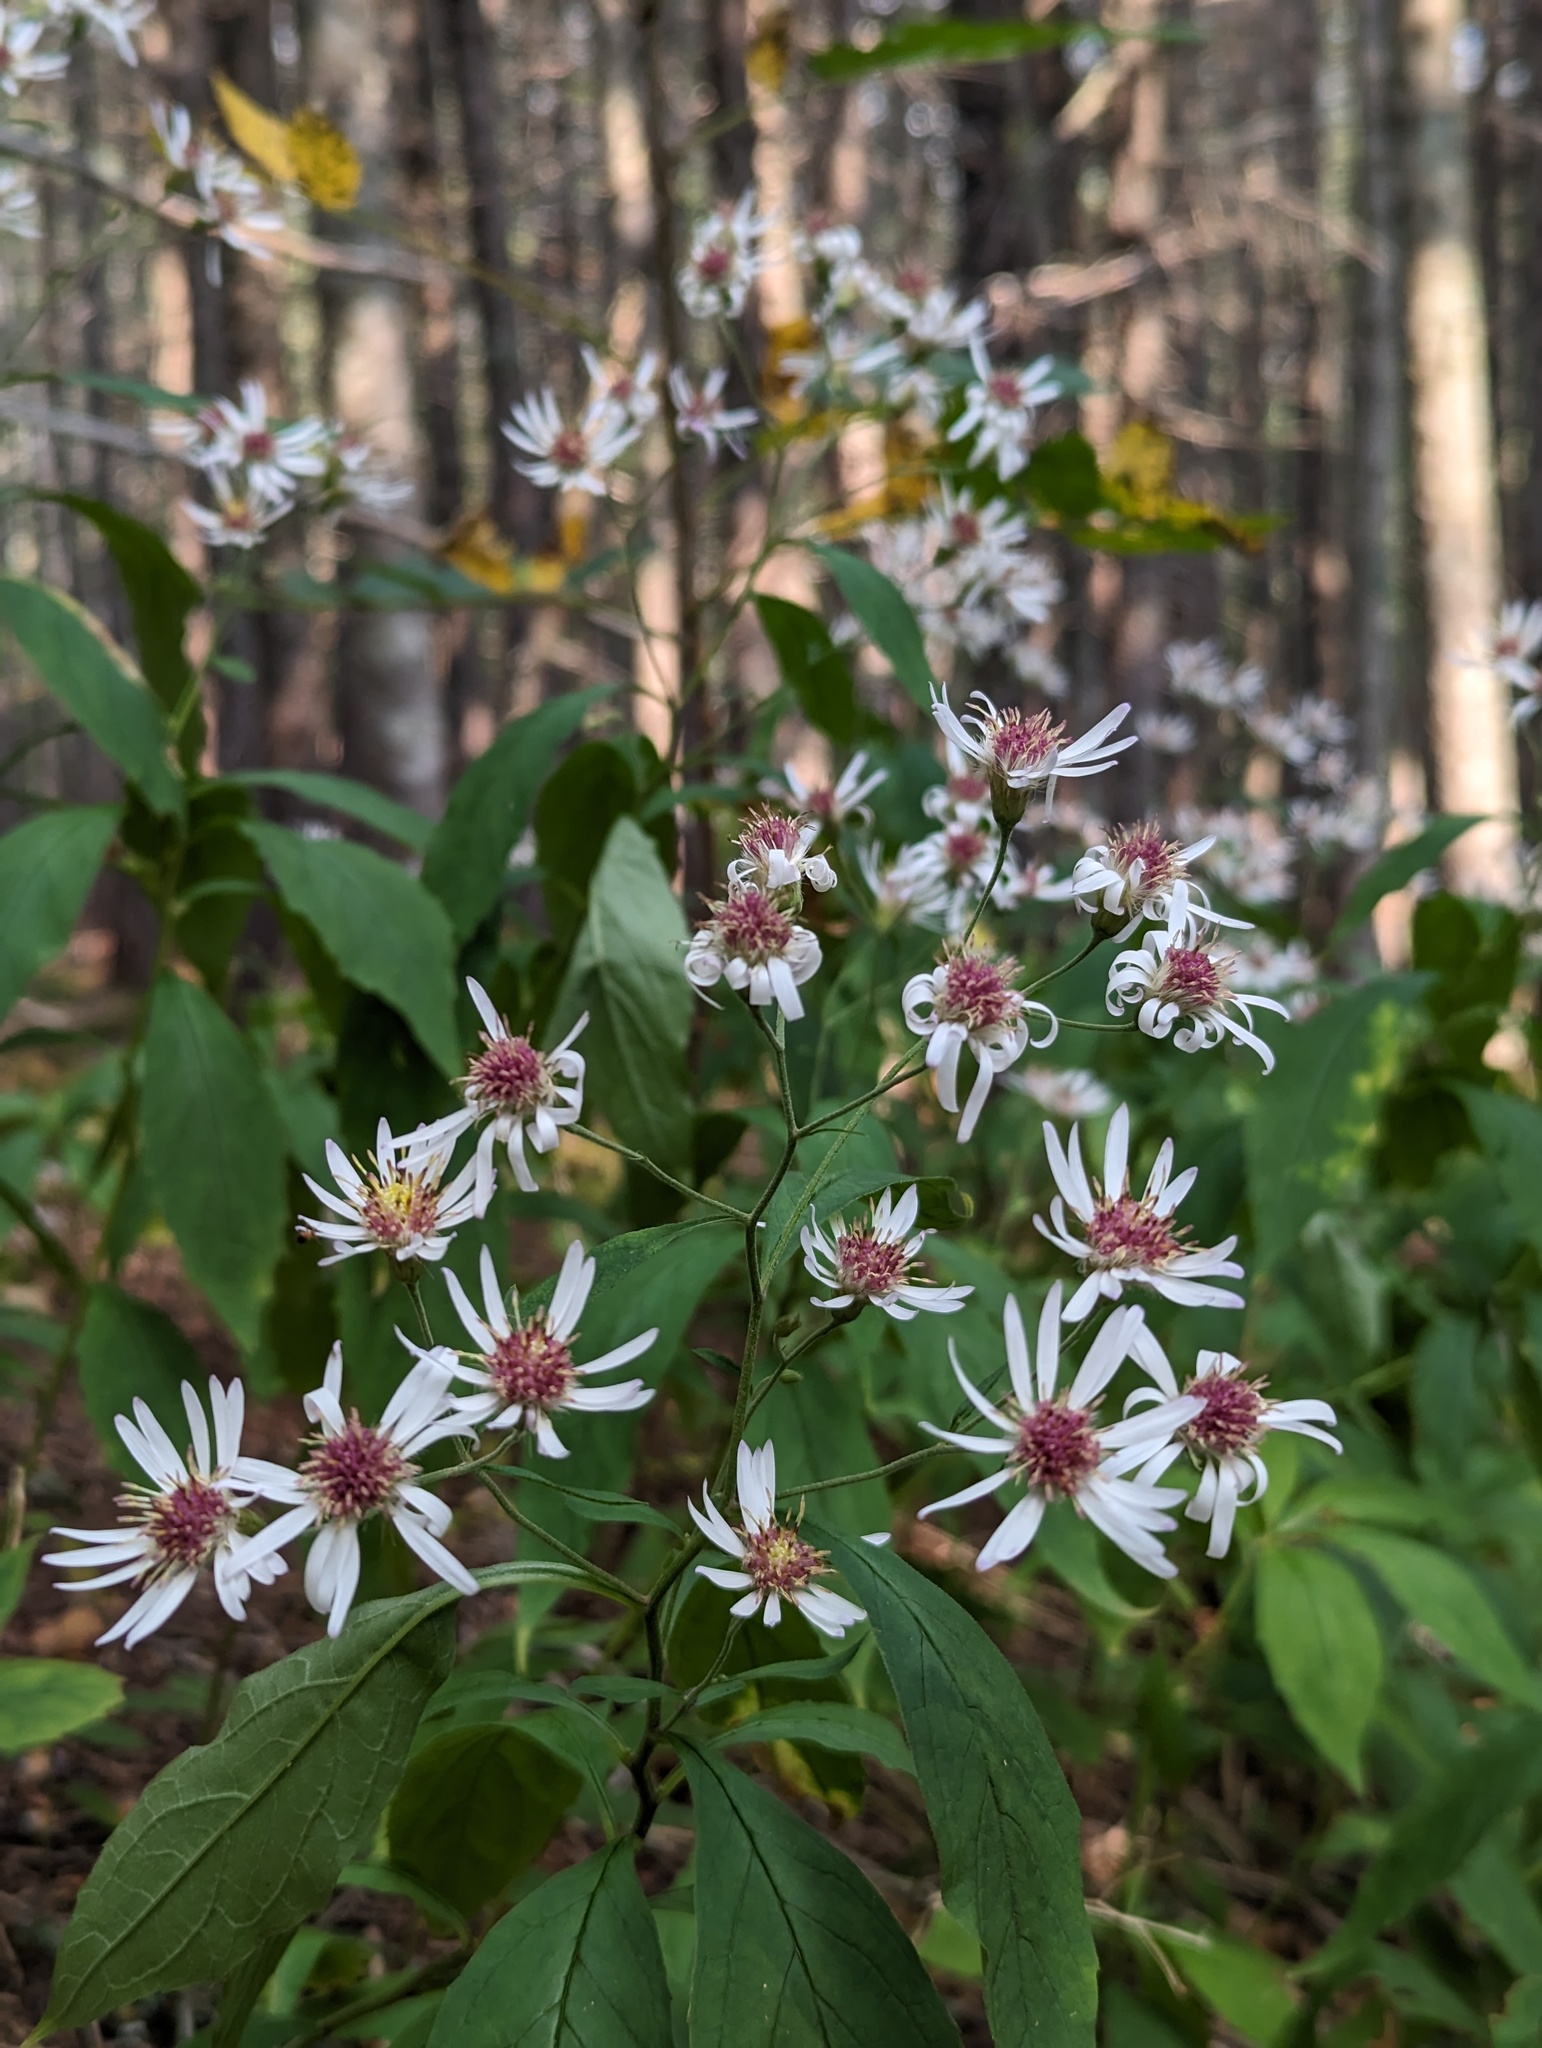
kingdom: Plantae
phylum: Tracheophyta
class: Magnoliopsida
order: Asterales
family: Asteraceae
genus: Oclemena
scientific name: Oclemena acuminata
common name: Mountain aster
